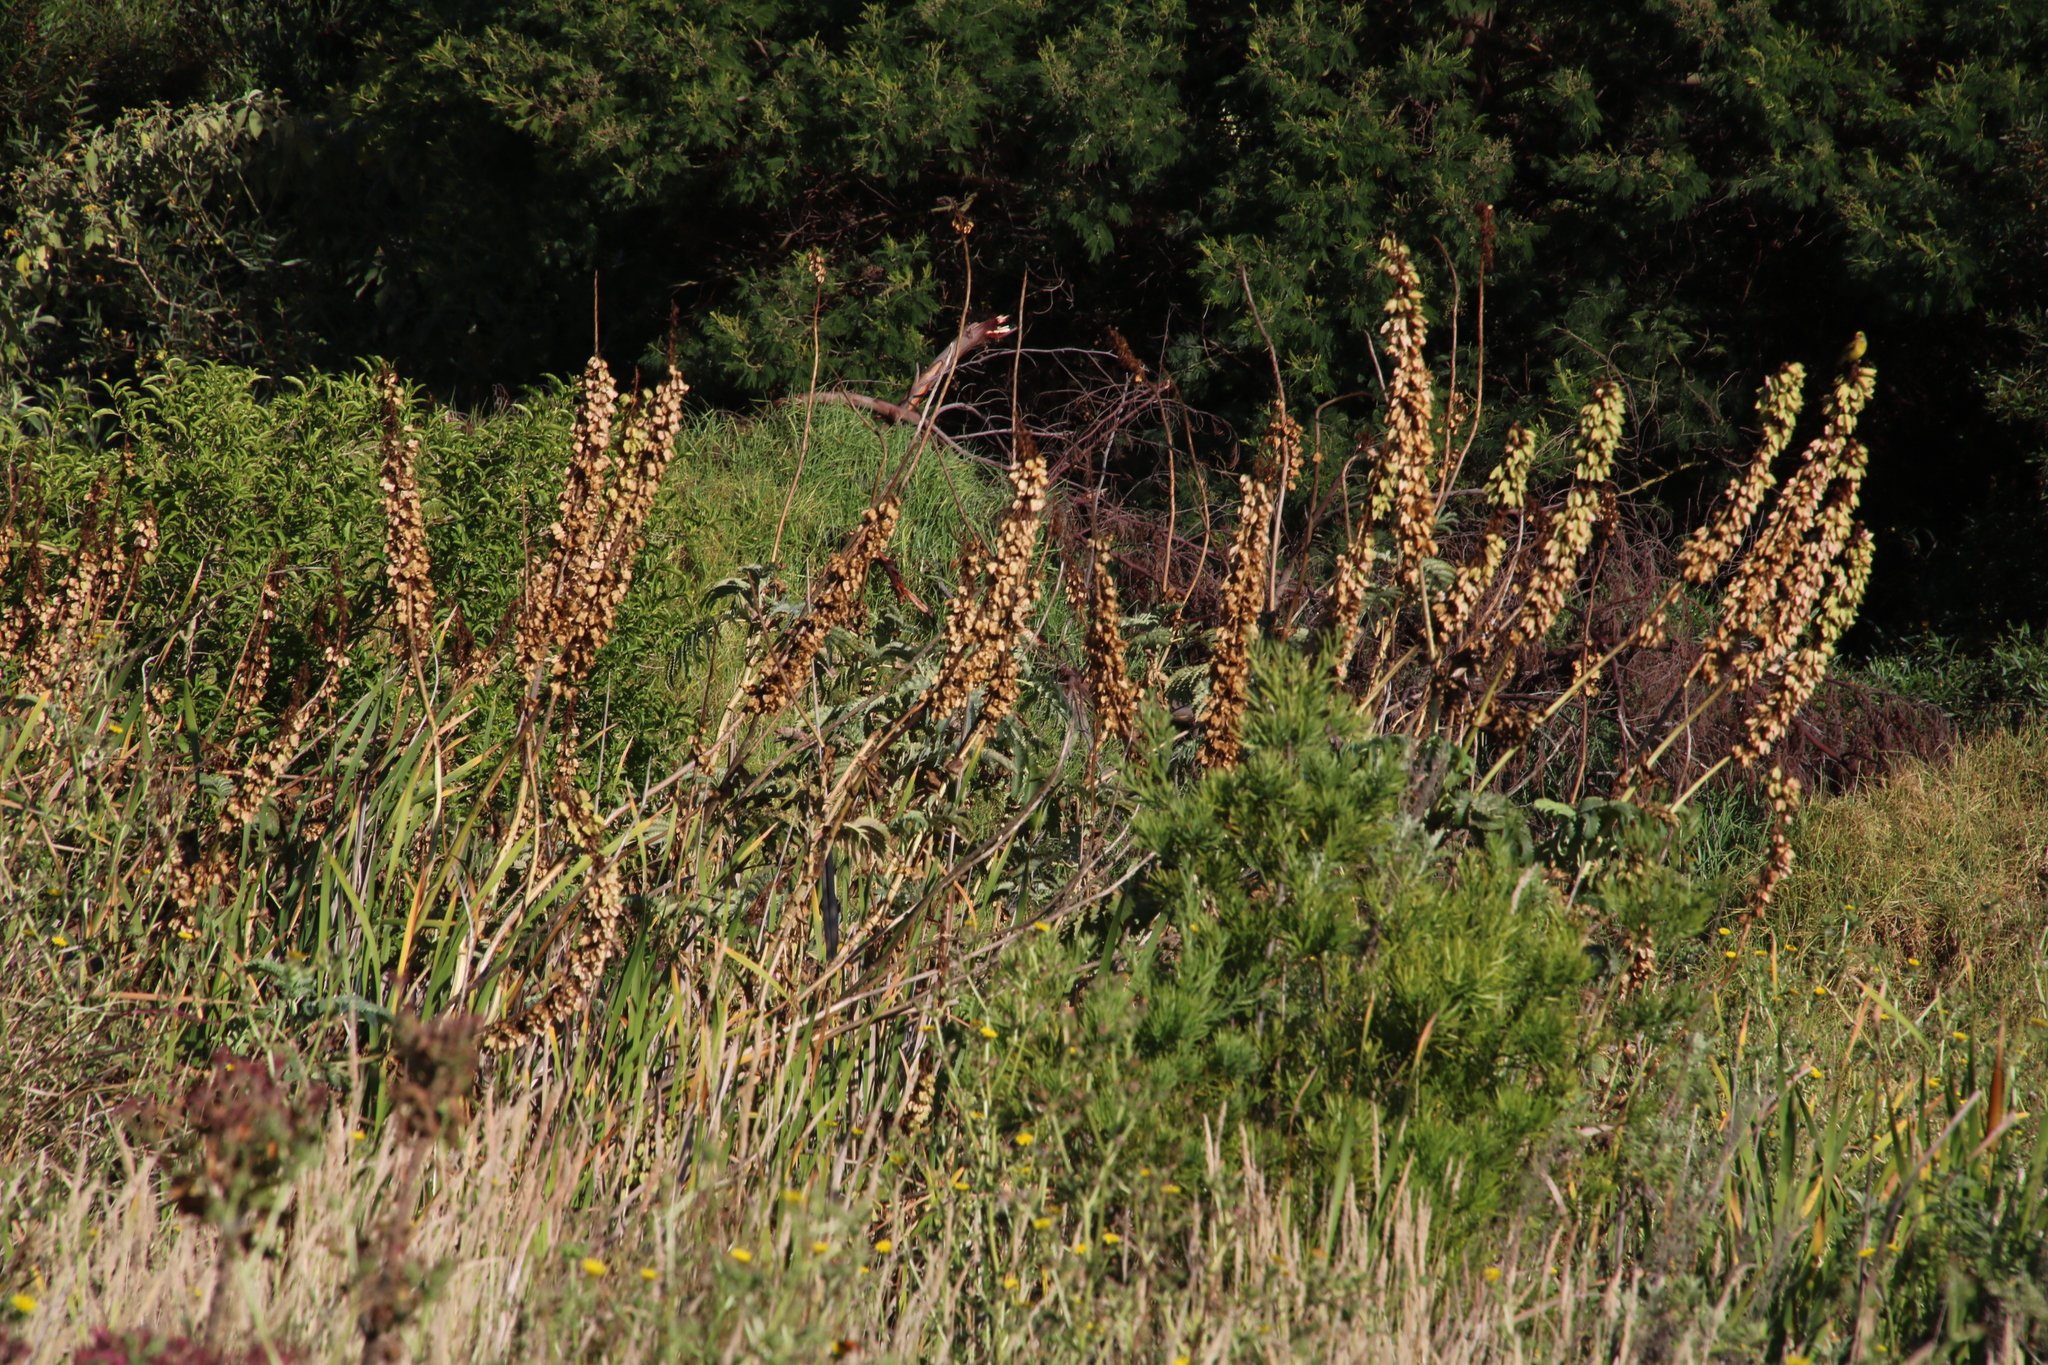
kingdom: Plantae
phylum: Tracheophyta
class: Magnoliopsida
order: Geraniales
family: Melianthaceae
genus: Melianthus
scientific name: Melianthus major
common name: Honey-flower
